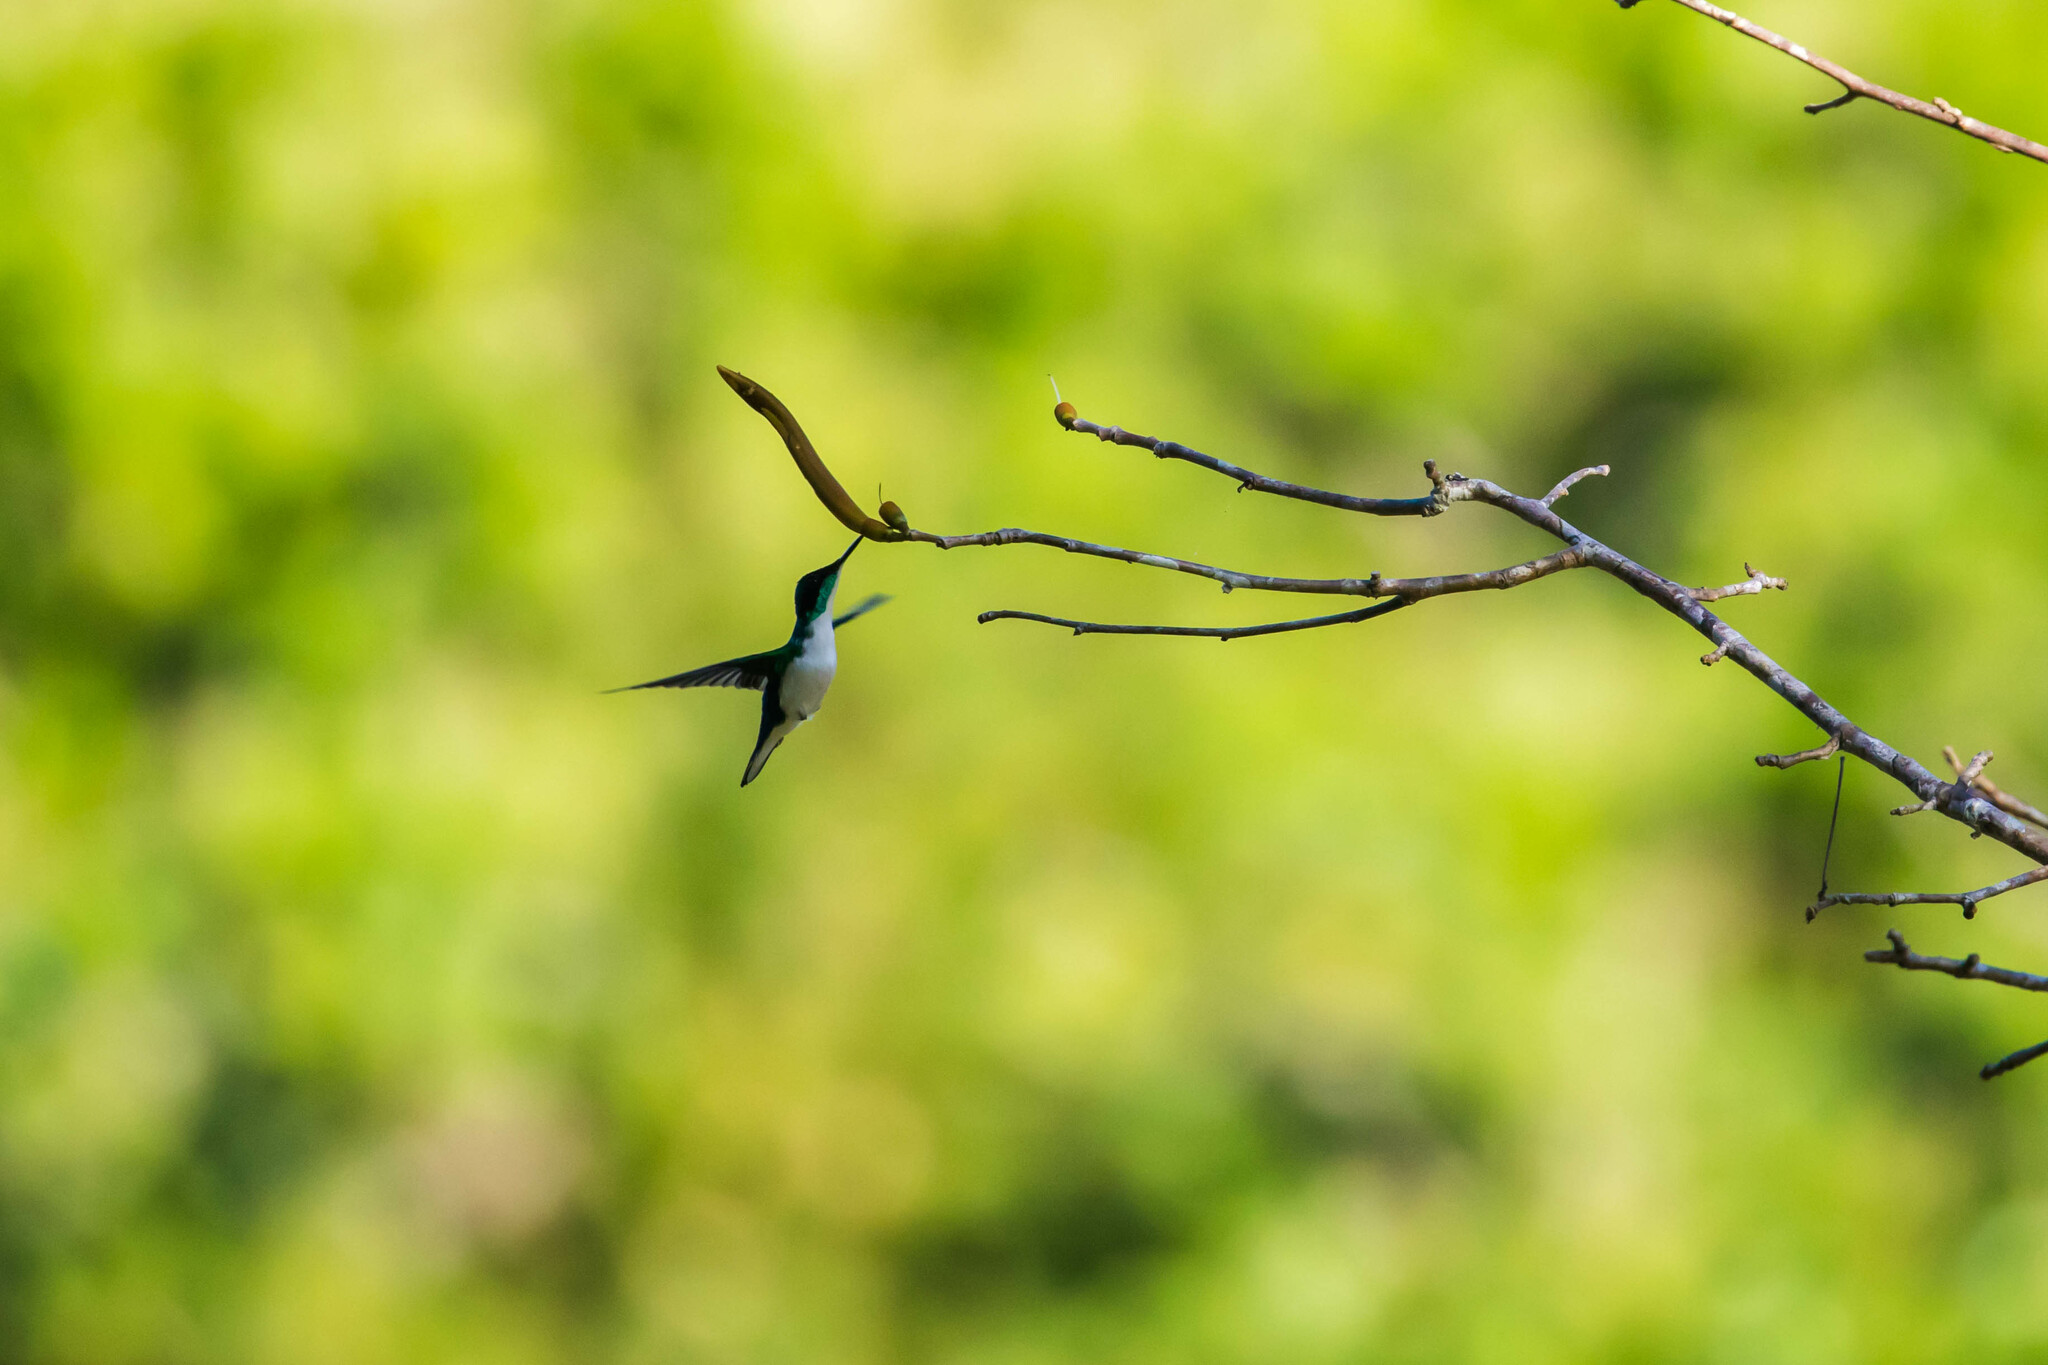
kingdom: Animalia
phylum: Chordata
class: Aves
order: Apodiformes
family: Trochilidae
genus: Heliothryx
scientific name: Heliothryx barroti
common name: Purple-crowned fairy
